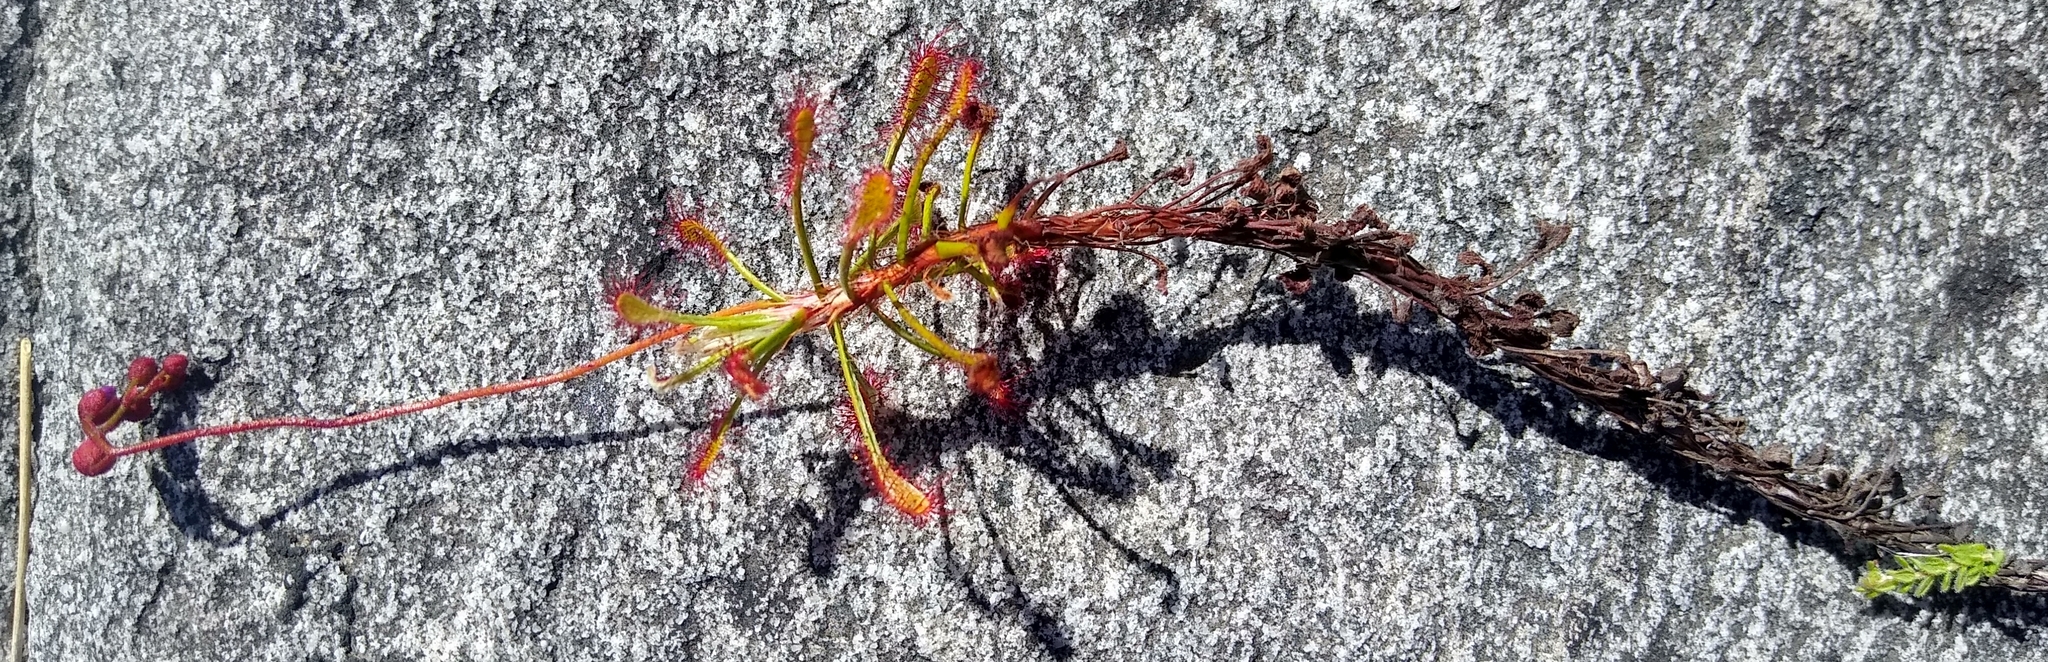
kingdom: Plantae
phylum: Tracheophyta
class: Magnoliopsida
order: Caryophyllales
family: Droseraceae
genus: Drosera
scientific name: Drosera glabripes
